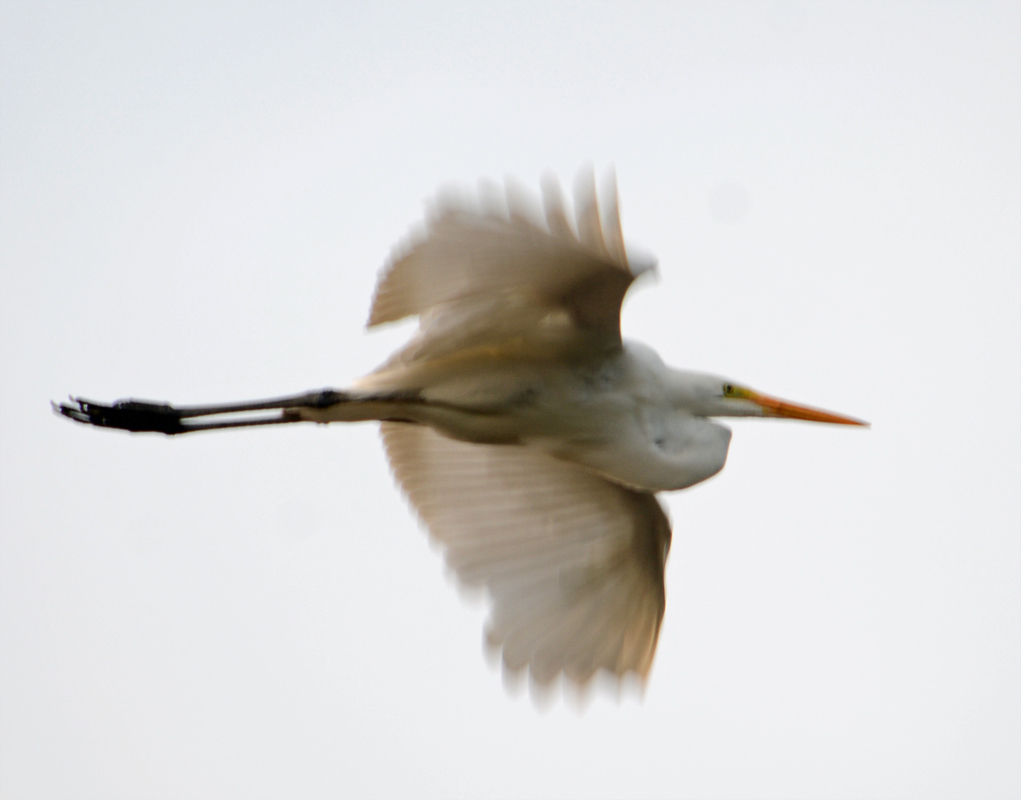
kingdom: Animalia
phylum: Chordata
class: Aves
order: Pelecaniformes
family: Ardeidae
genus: Ardea
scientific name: Ardea alba
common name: Great egret
